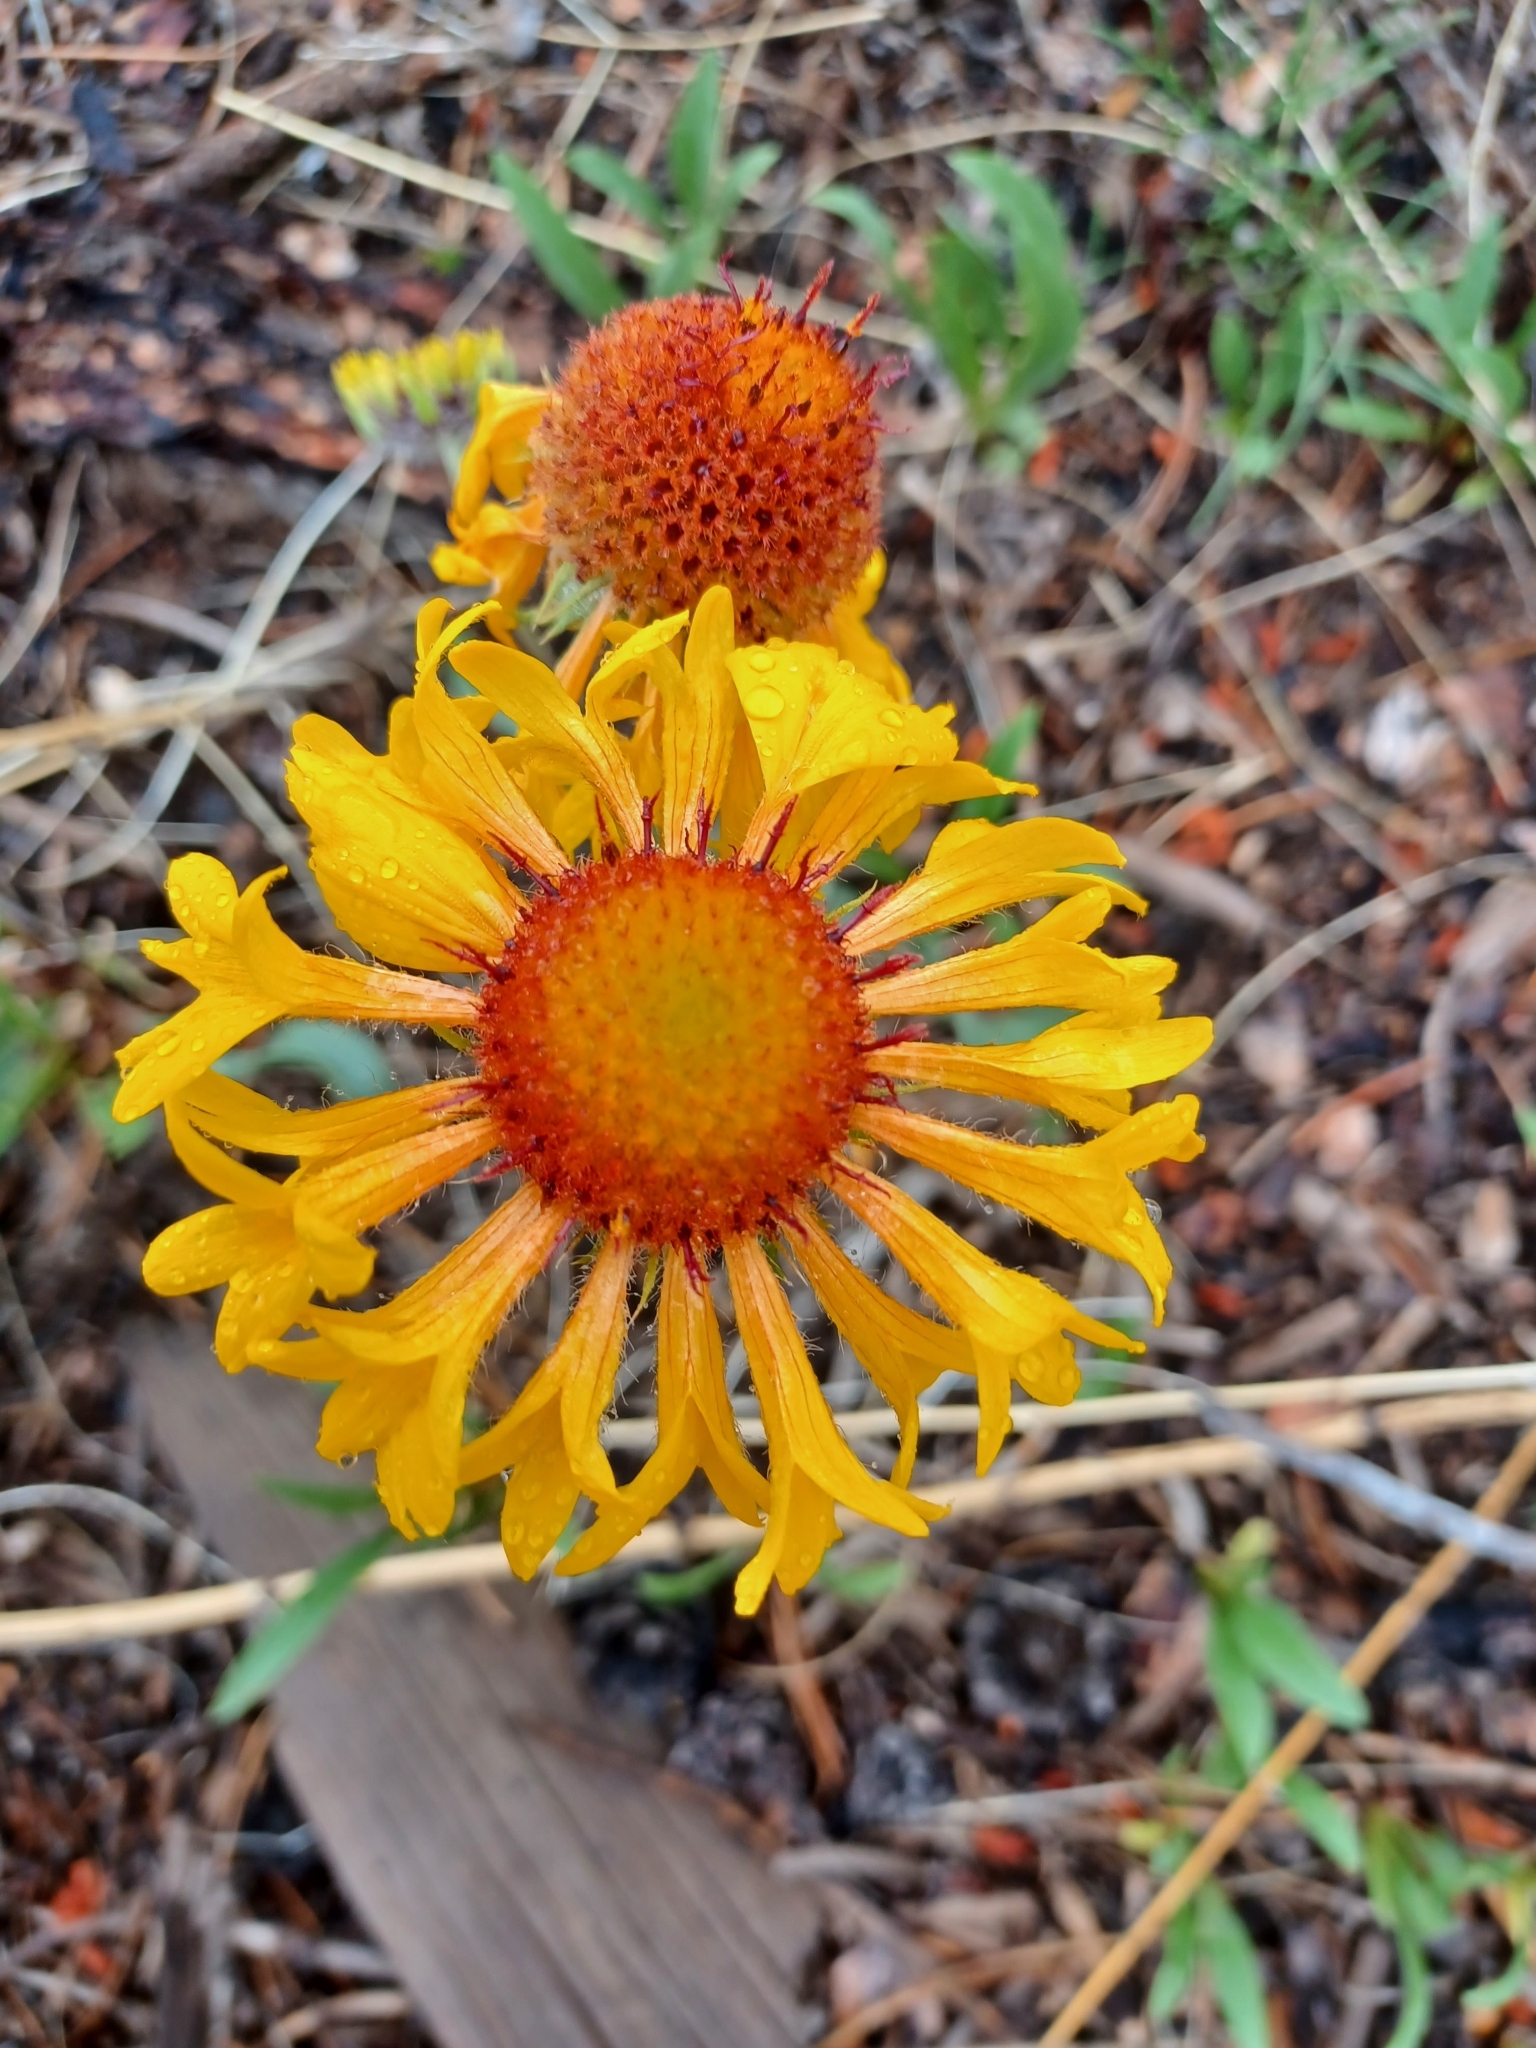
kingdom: Plantae
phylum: Tracheophyta
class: Magnoliopsida
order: Asterales
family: Asteraceae
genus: Gaillardia
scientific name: Gaillardia aristata
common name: Blanket-flower
